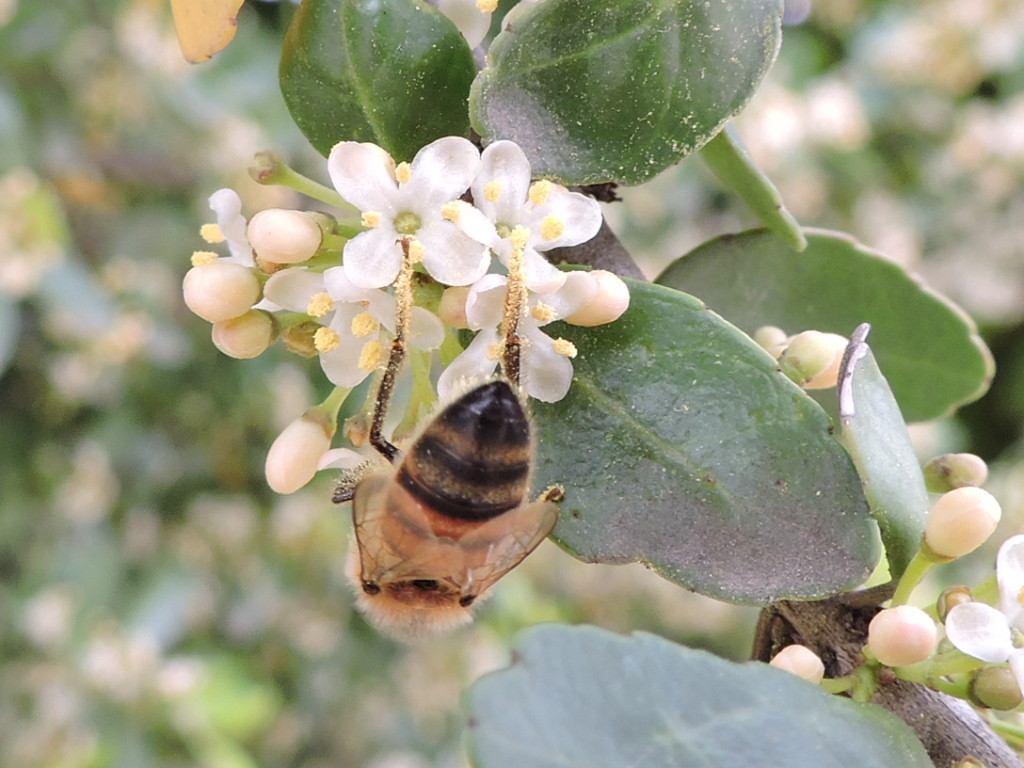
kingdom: Animalia
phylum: Arthropoda
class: Insecta
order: Hymenoptera
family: Apidae
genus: Apis
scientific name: Apis mellifera
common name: Honey bee
